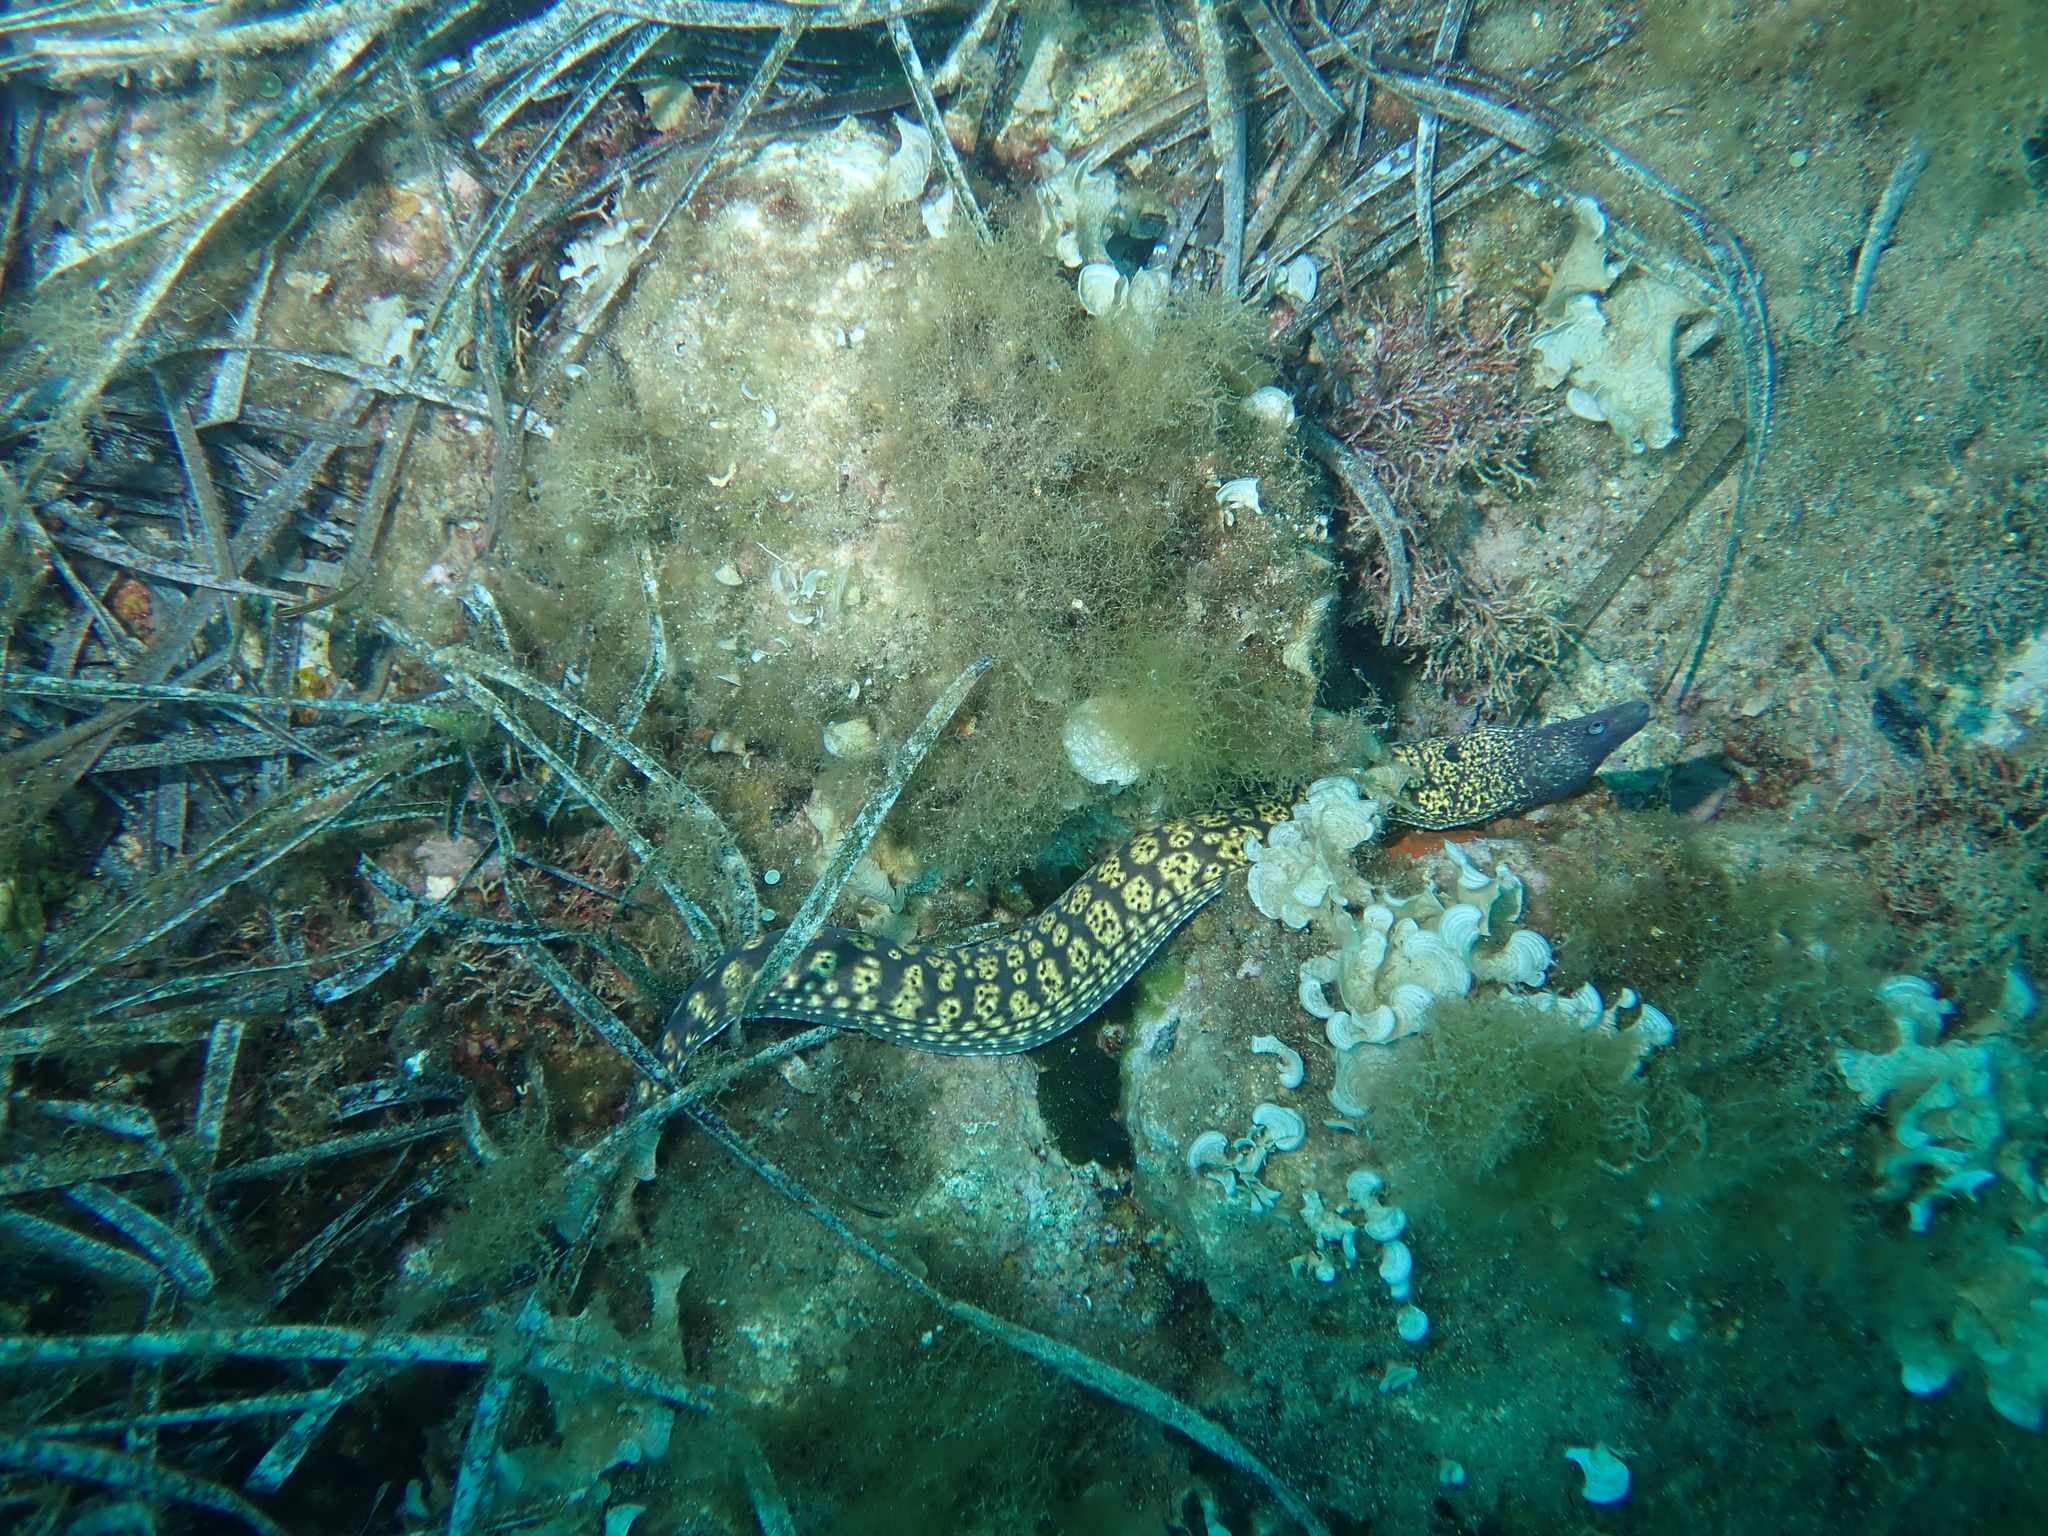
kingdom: Animalia
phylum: Chordata
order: Anguilliformes
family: Muraenidae
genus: Muraena
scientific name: Muraena helena
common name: Mediterranean moray
